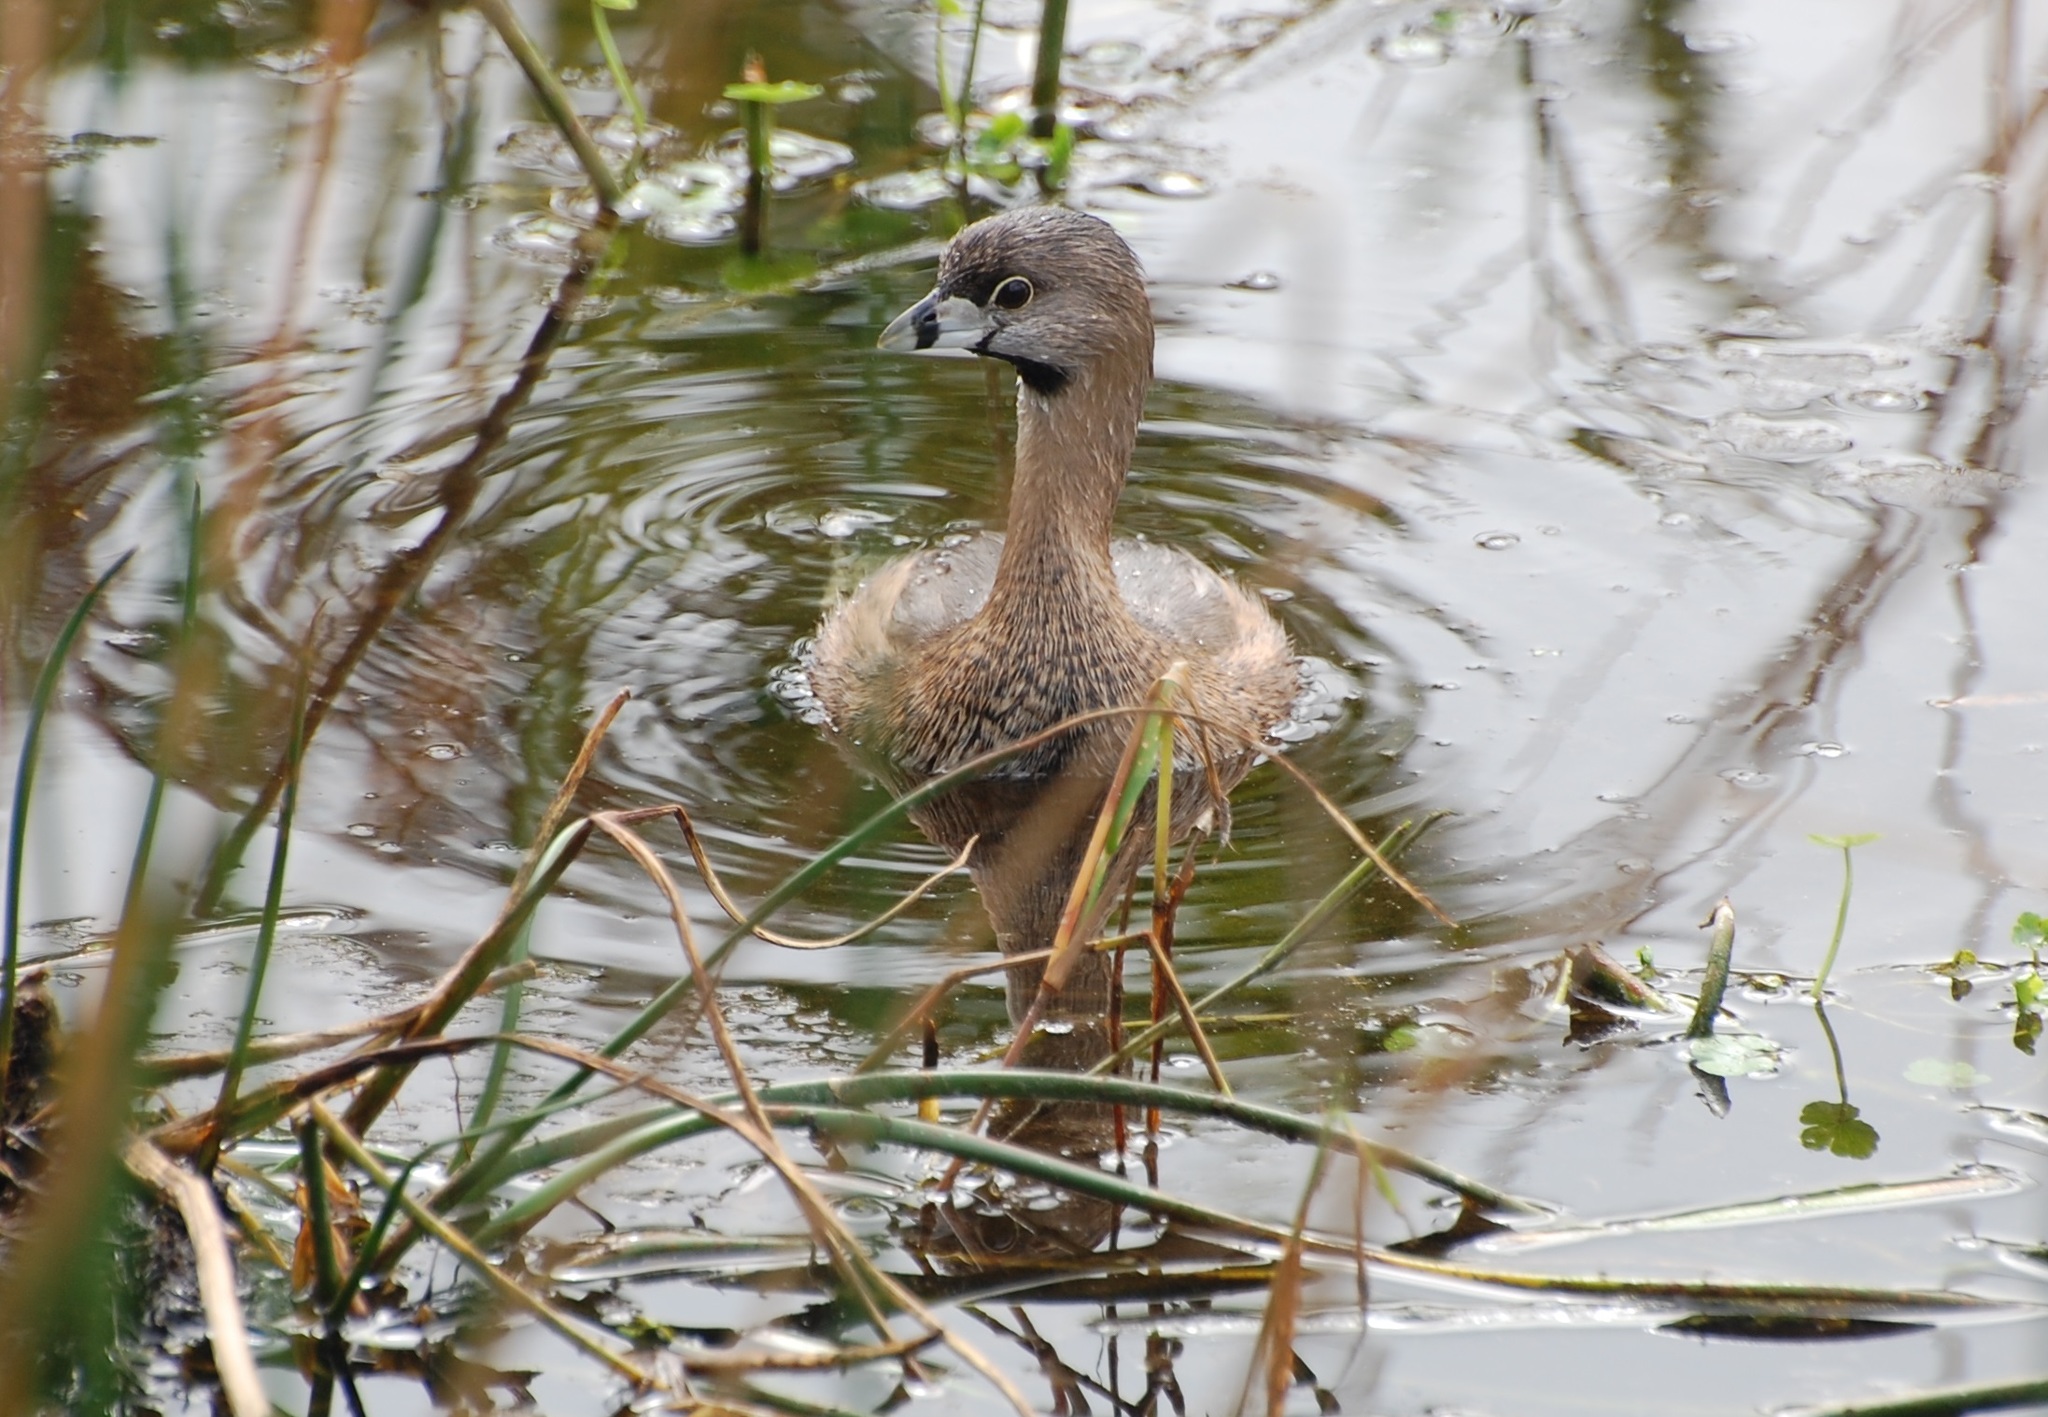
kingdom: Animalia
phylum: Chordata
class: Aves
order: Podicipediformes
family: Podicipedidae
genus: Podilymbus
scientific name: Podilymbus podiceps
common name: Pied-billed grebe
